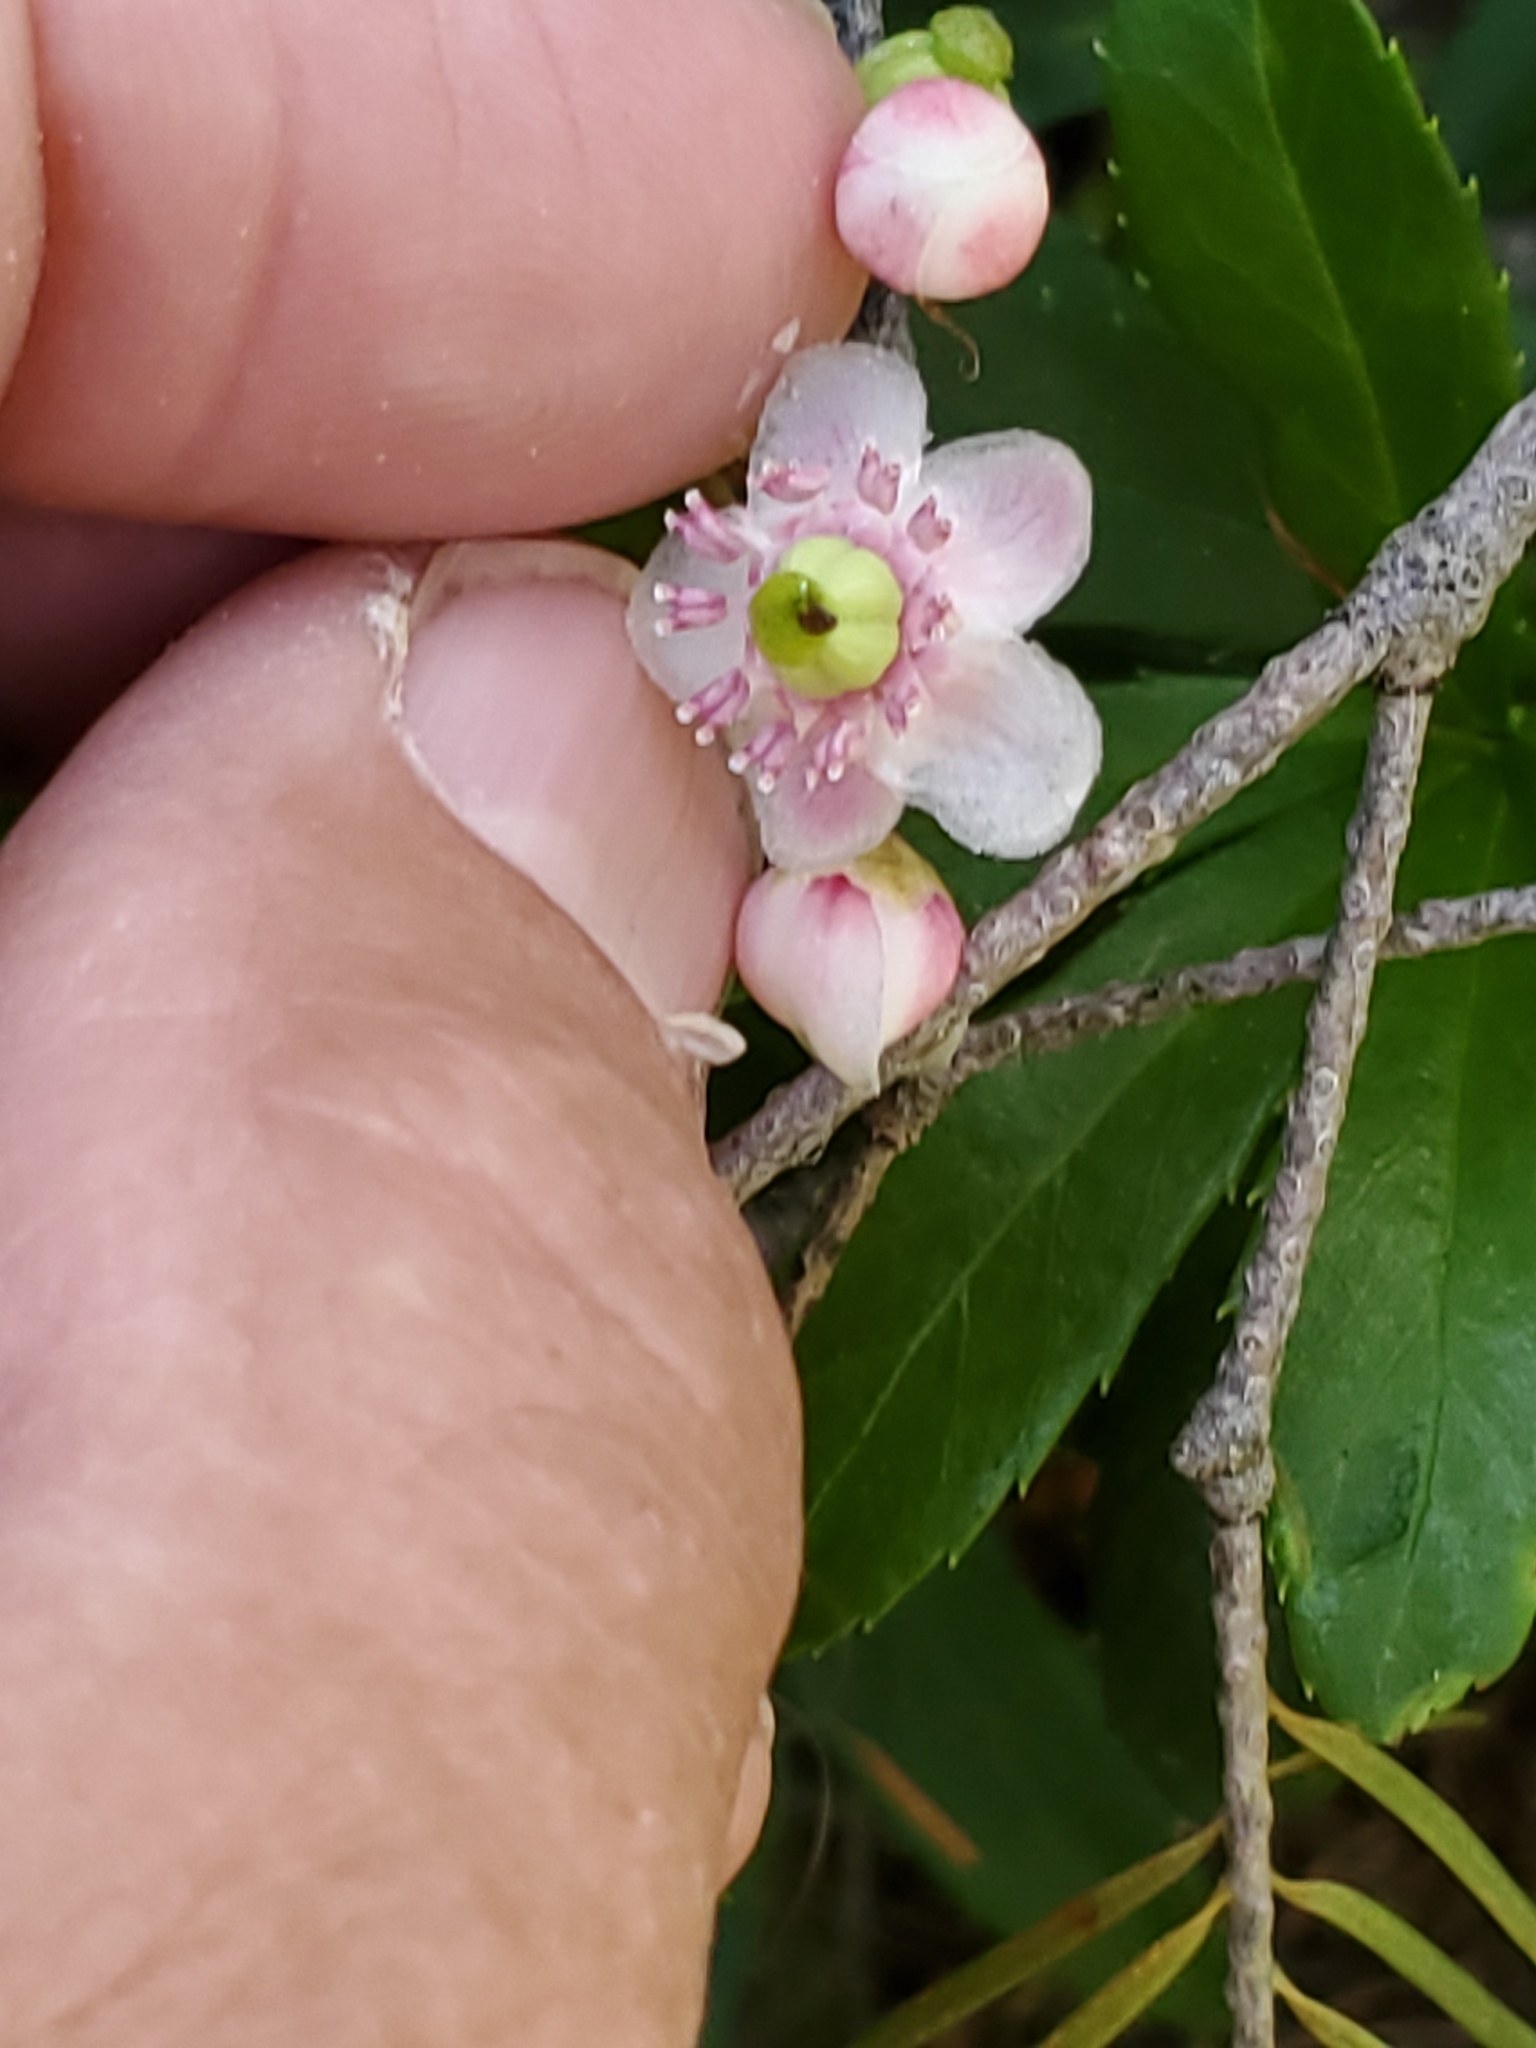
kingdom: Plantae
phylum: Tracheophyta
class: Magnoliopsida
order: Ericales
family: Ericaceae
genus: Chimaphila
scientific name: Chimaphila umbellata
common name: Pipsissewa
